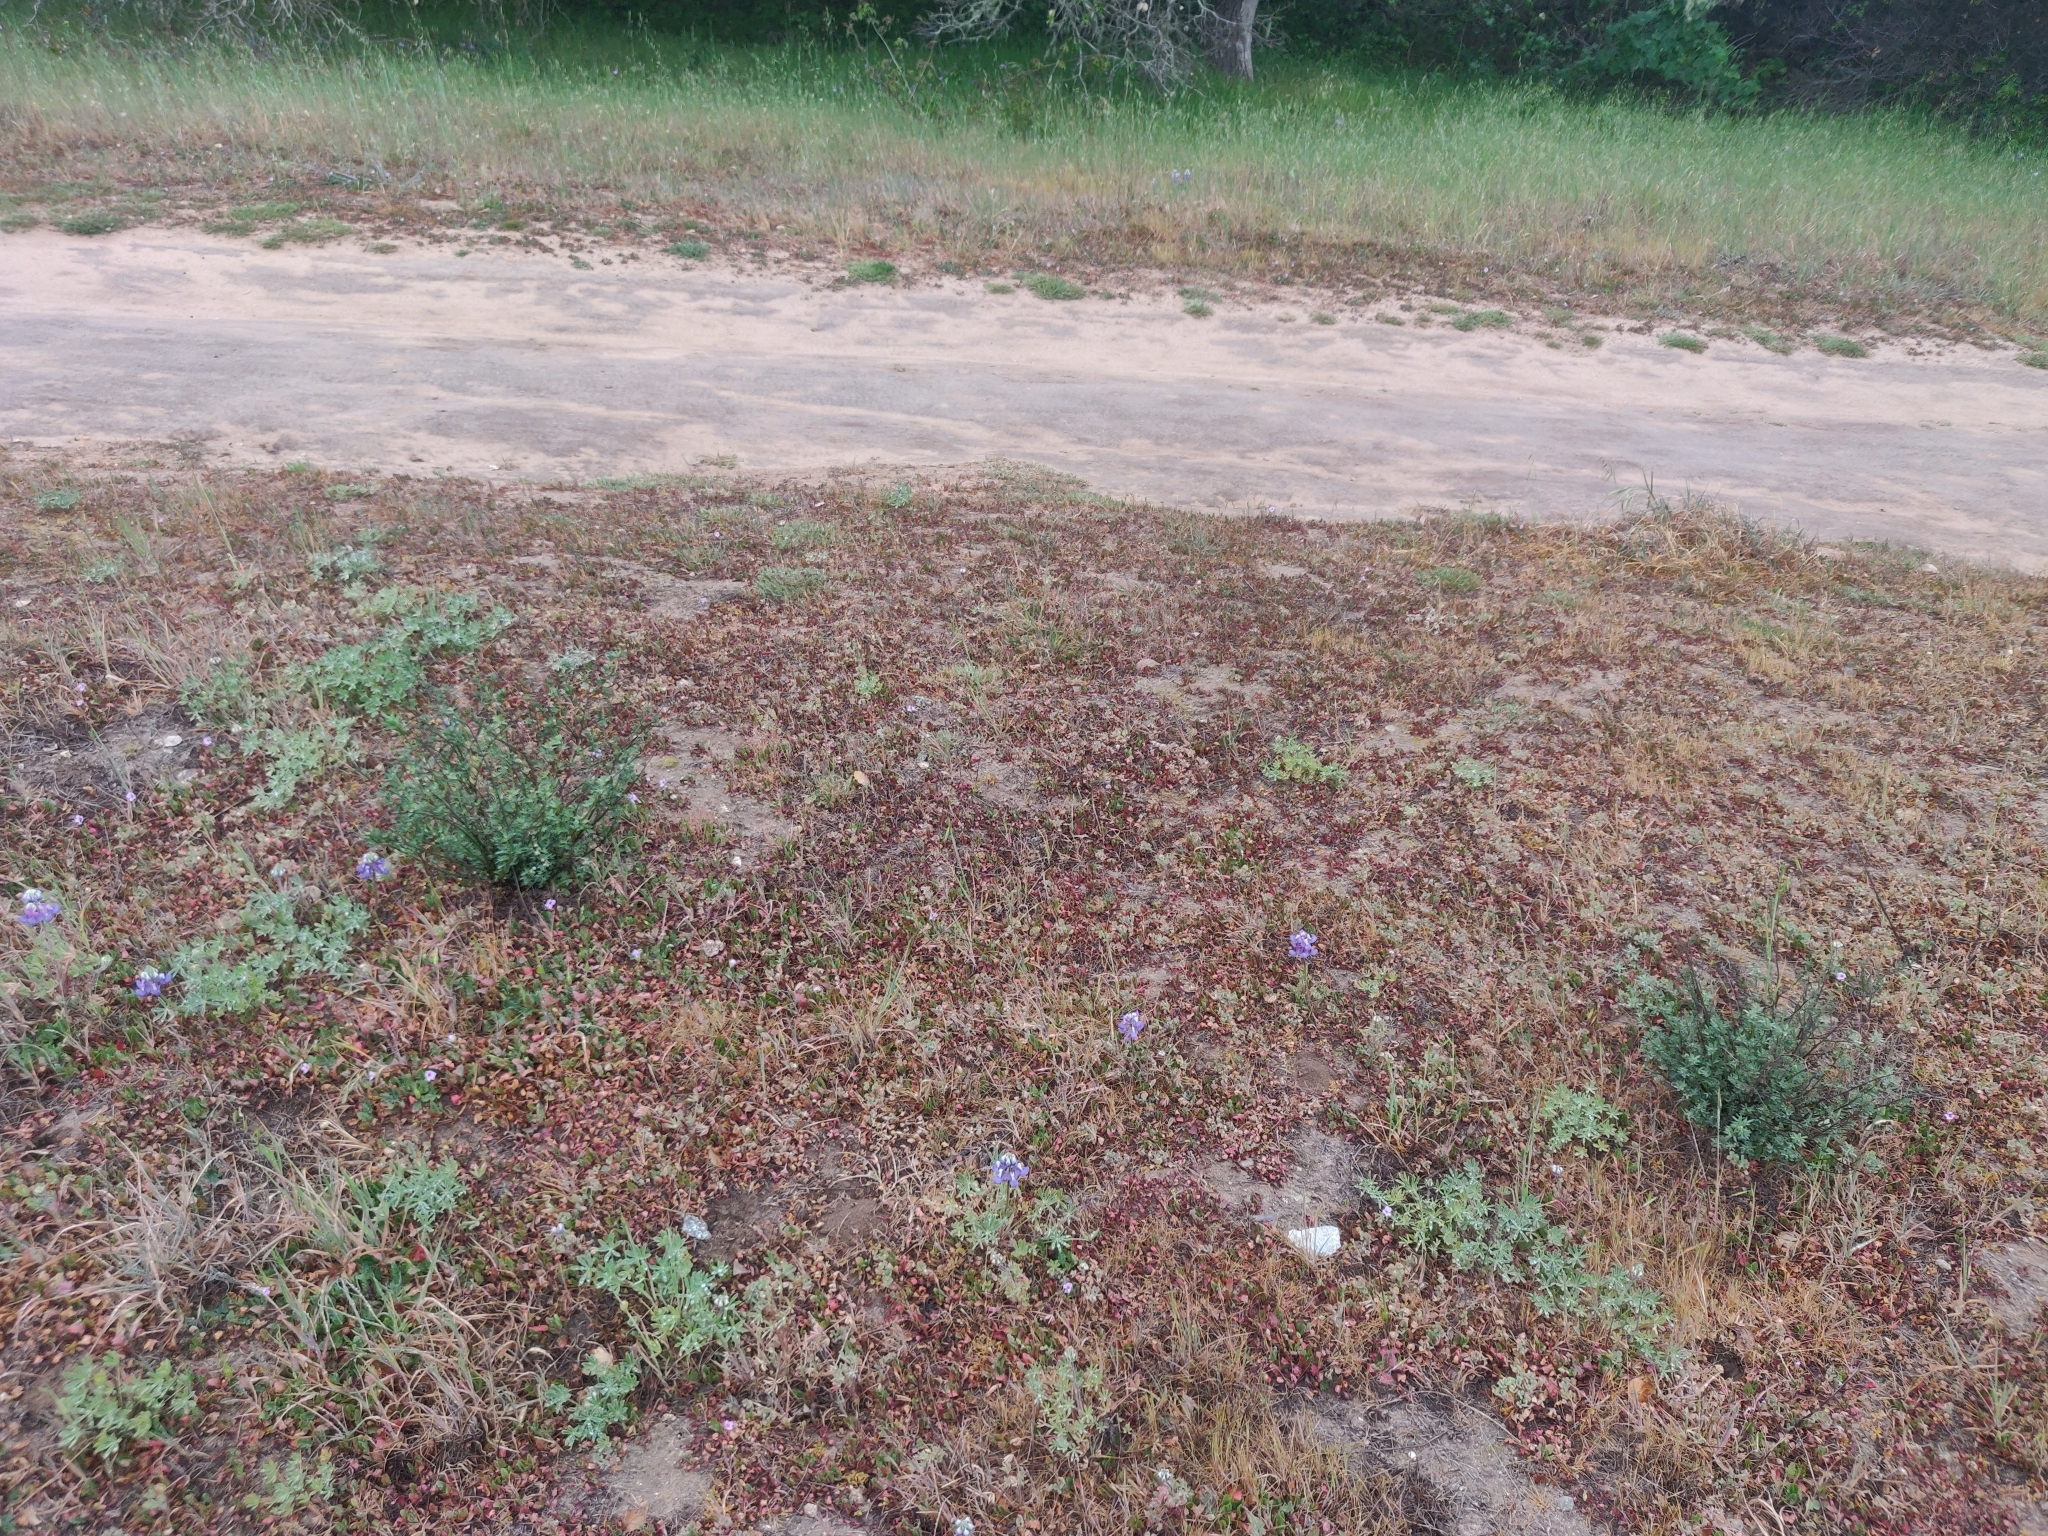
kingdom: Plantae
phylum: Tracheophyta
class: Magnoliopsida
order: Fabales
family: Fabaceae
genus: Lupinus
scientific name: Lupinus nanus
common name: Orean blue lupin
